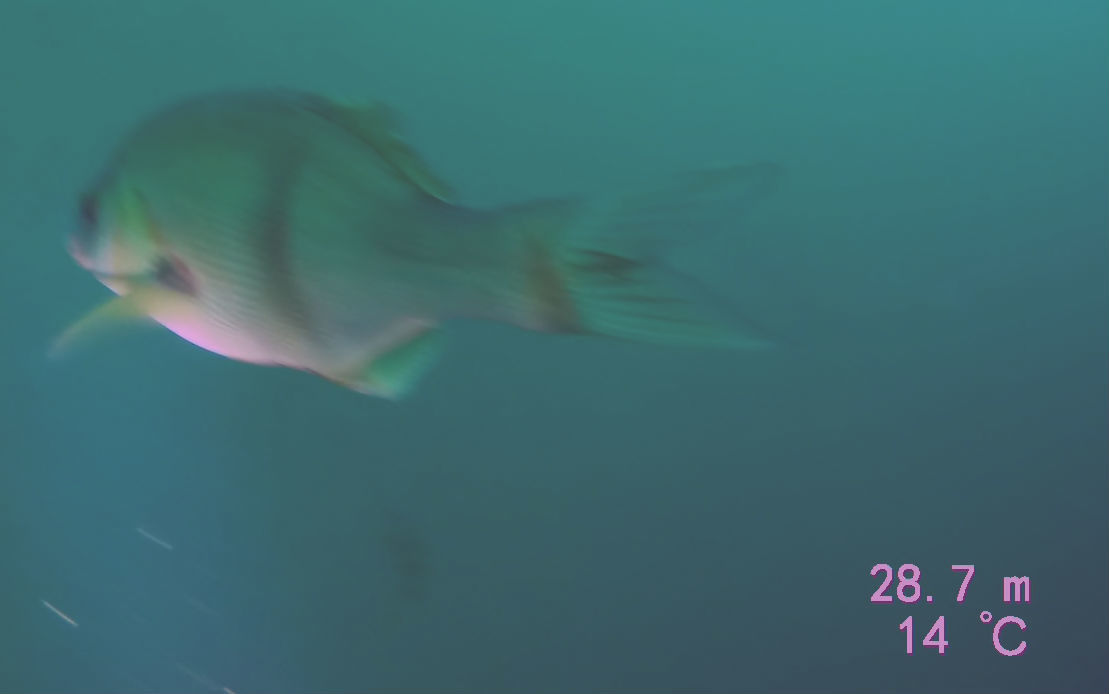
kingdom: Animalia
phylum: Chordata
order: Perciformes
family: Embiotocidae
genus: Rhacochilus
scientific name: Rhacochilus vacca
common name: Pile perch
